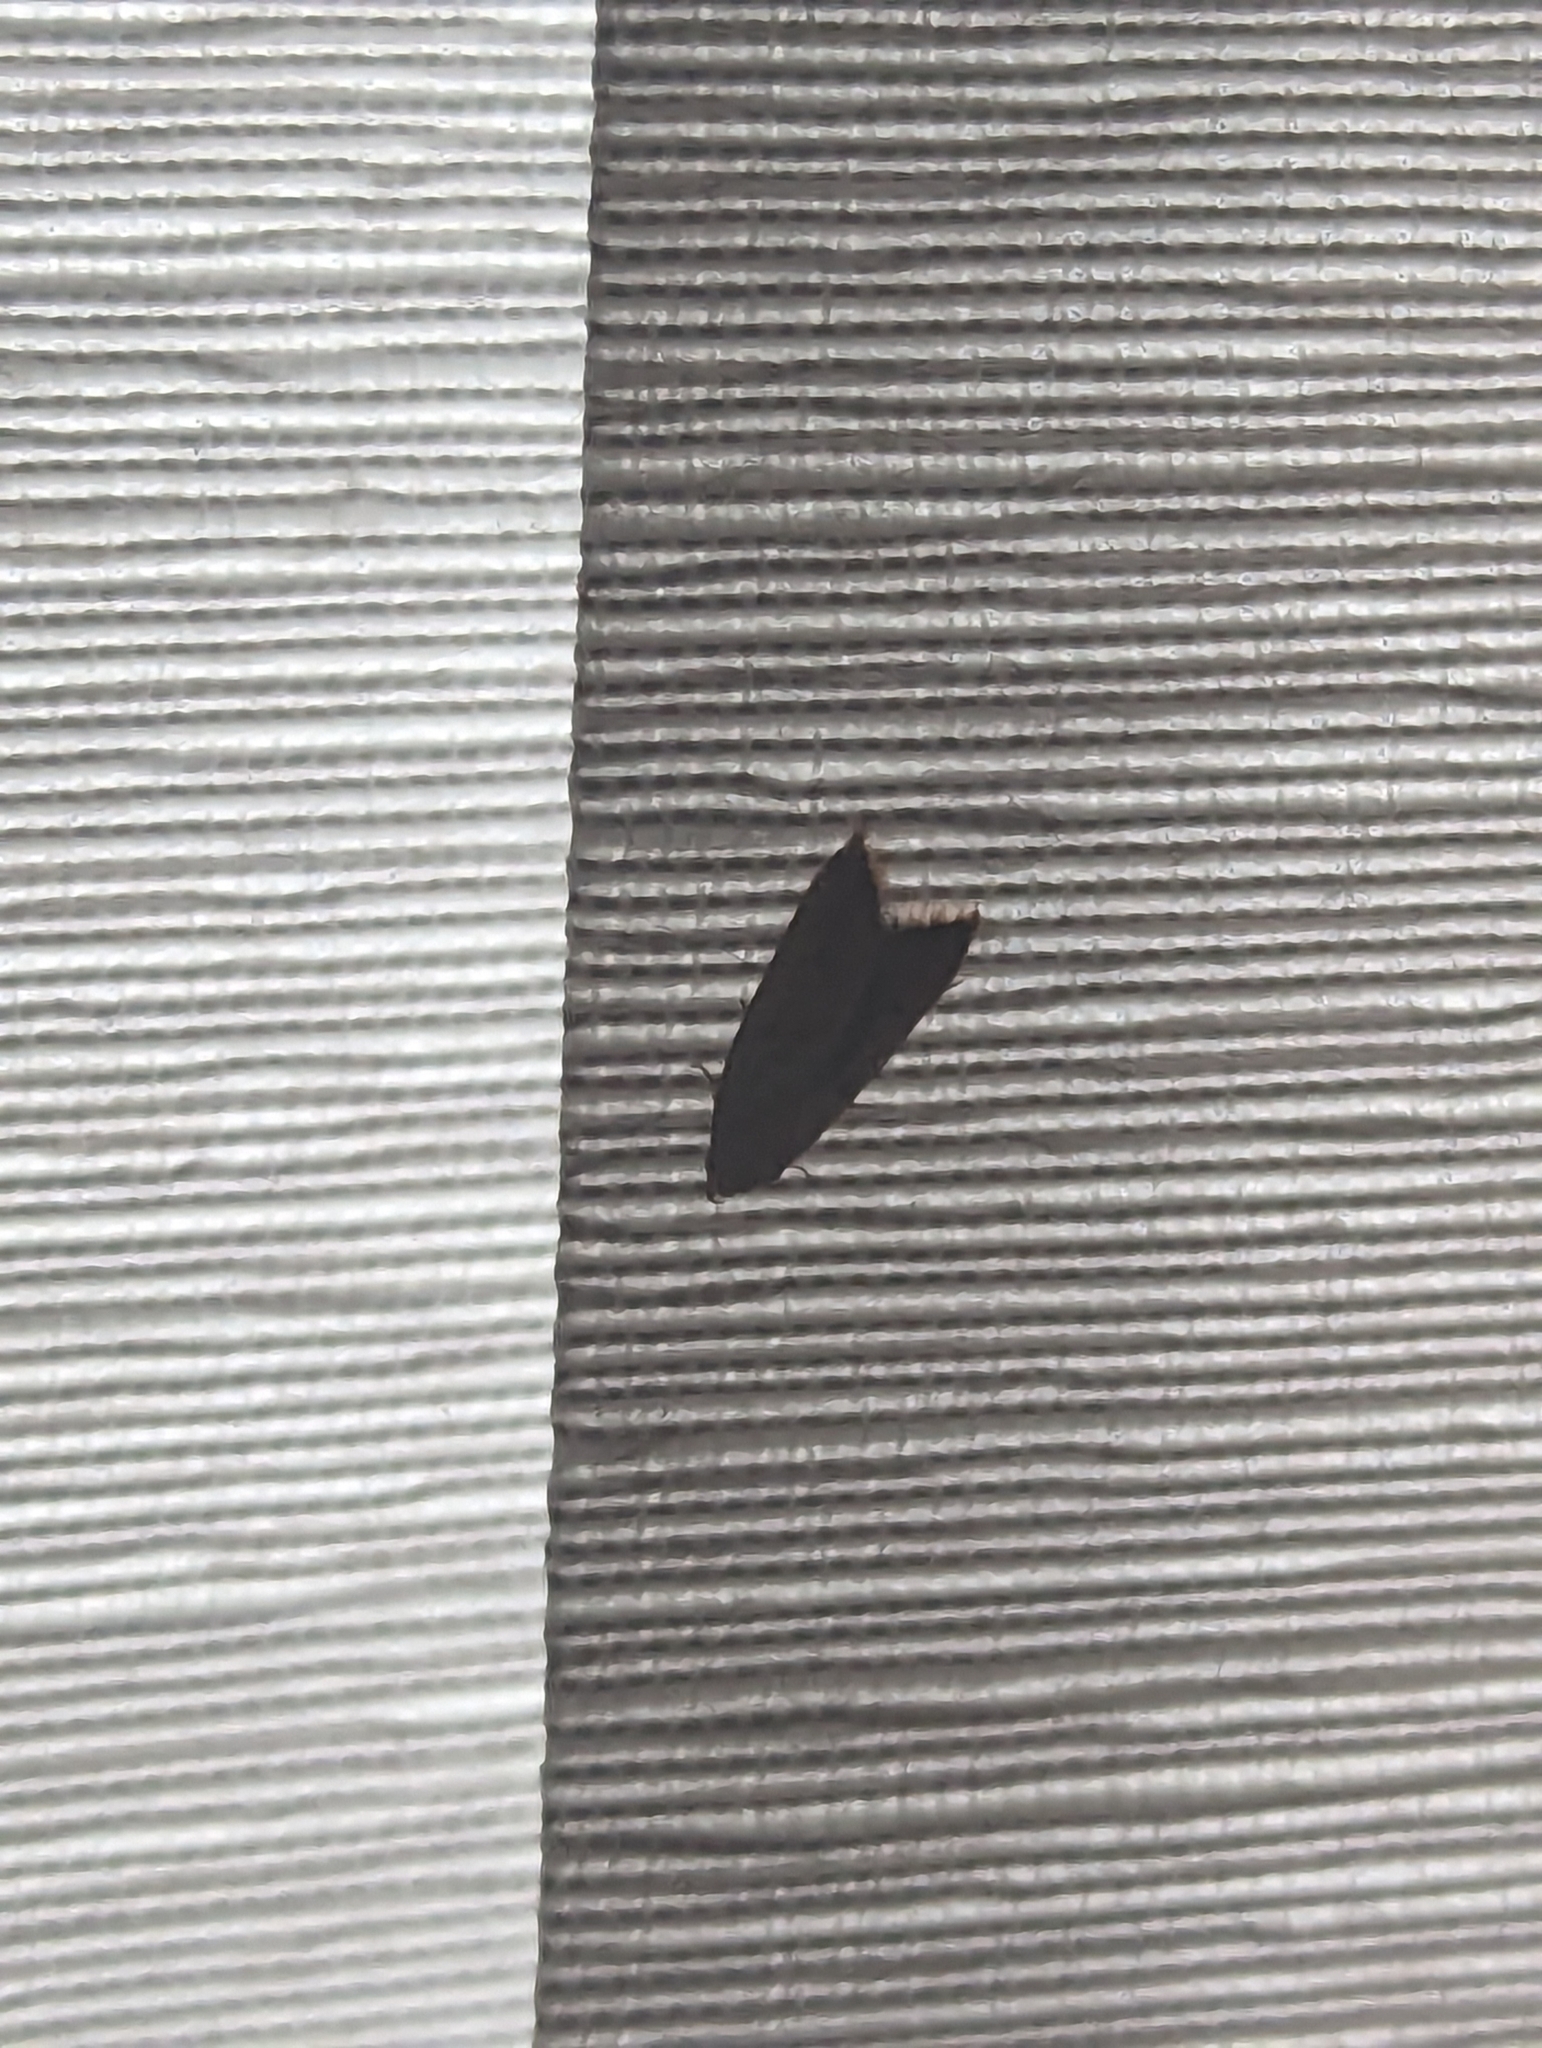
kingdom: Animalia
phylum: Arthropoda
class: Insecta
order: Lepidoptera
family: Oecophoridae
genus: Tachystola
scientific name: Tachystola acroxantha
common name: Ruddy streak
